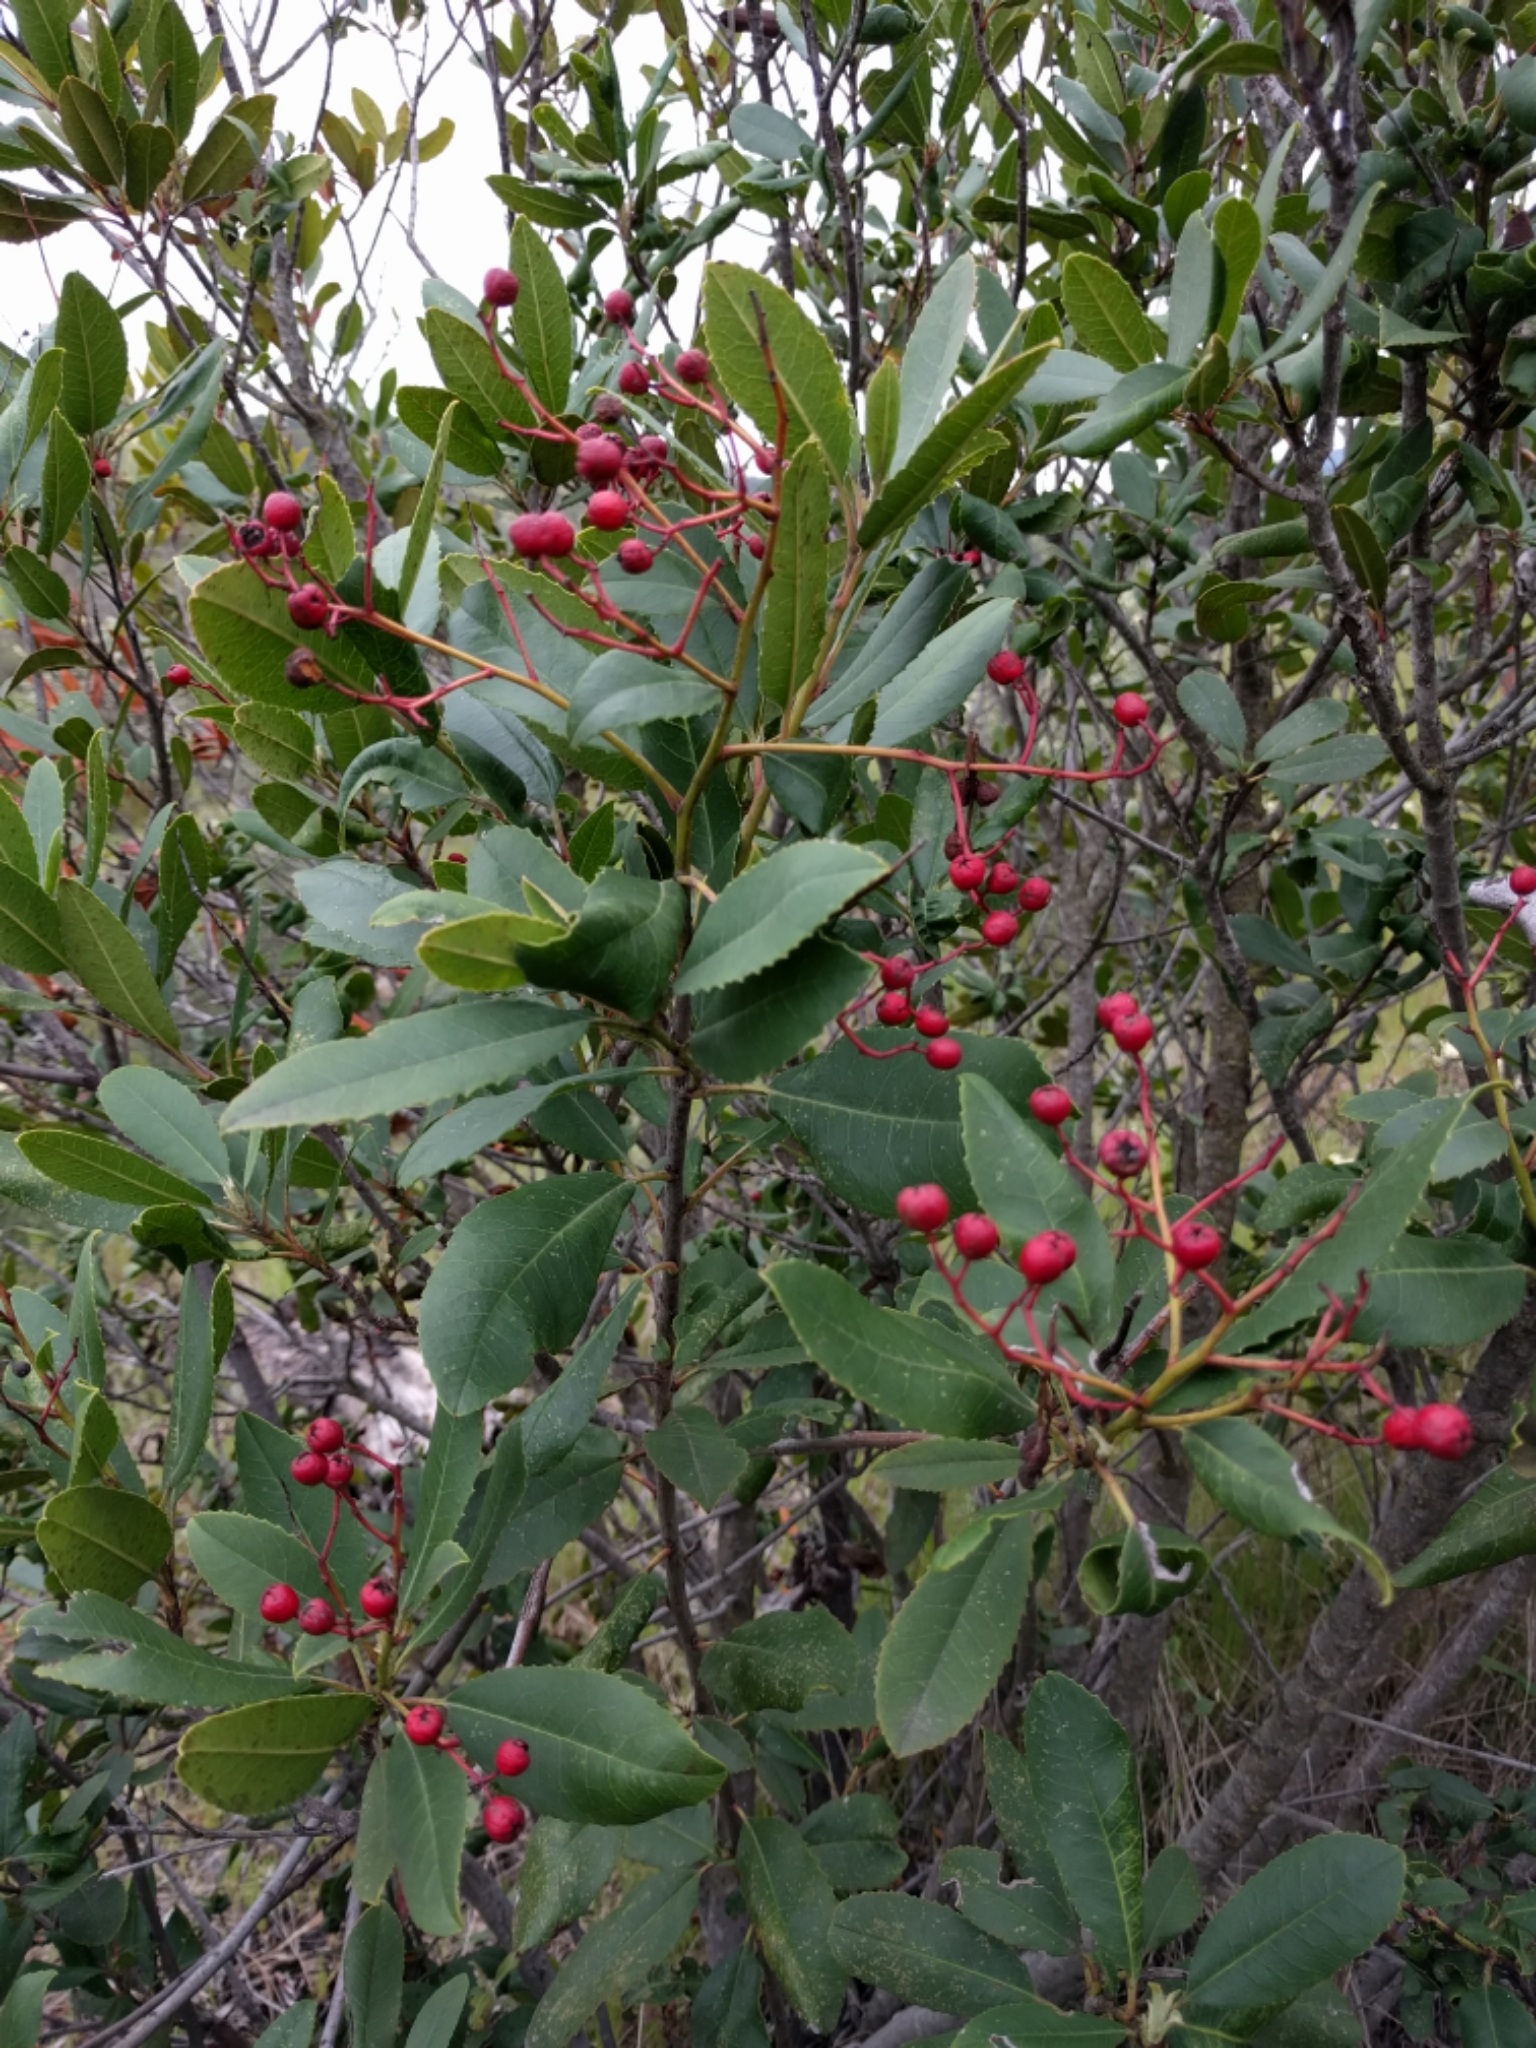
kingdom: Plantae
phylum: Tracheophyta
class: Magnoliopsida
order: Rosales
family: Rosaceae
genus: Heteromeles
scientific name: Heteromeles arbutifolia
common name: California-holly
